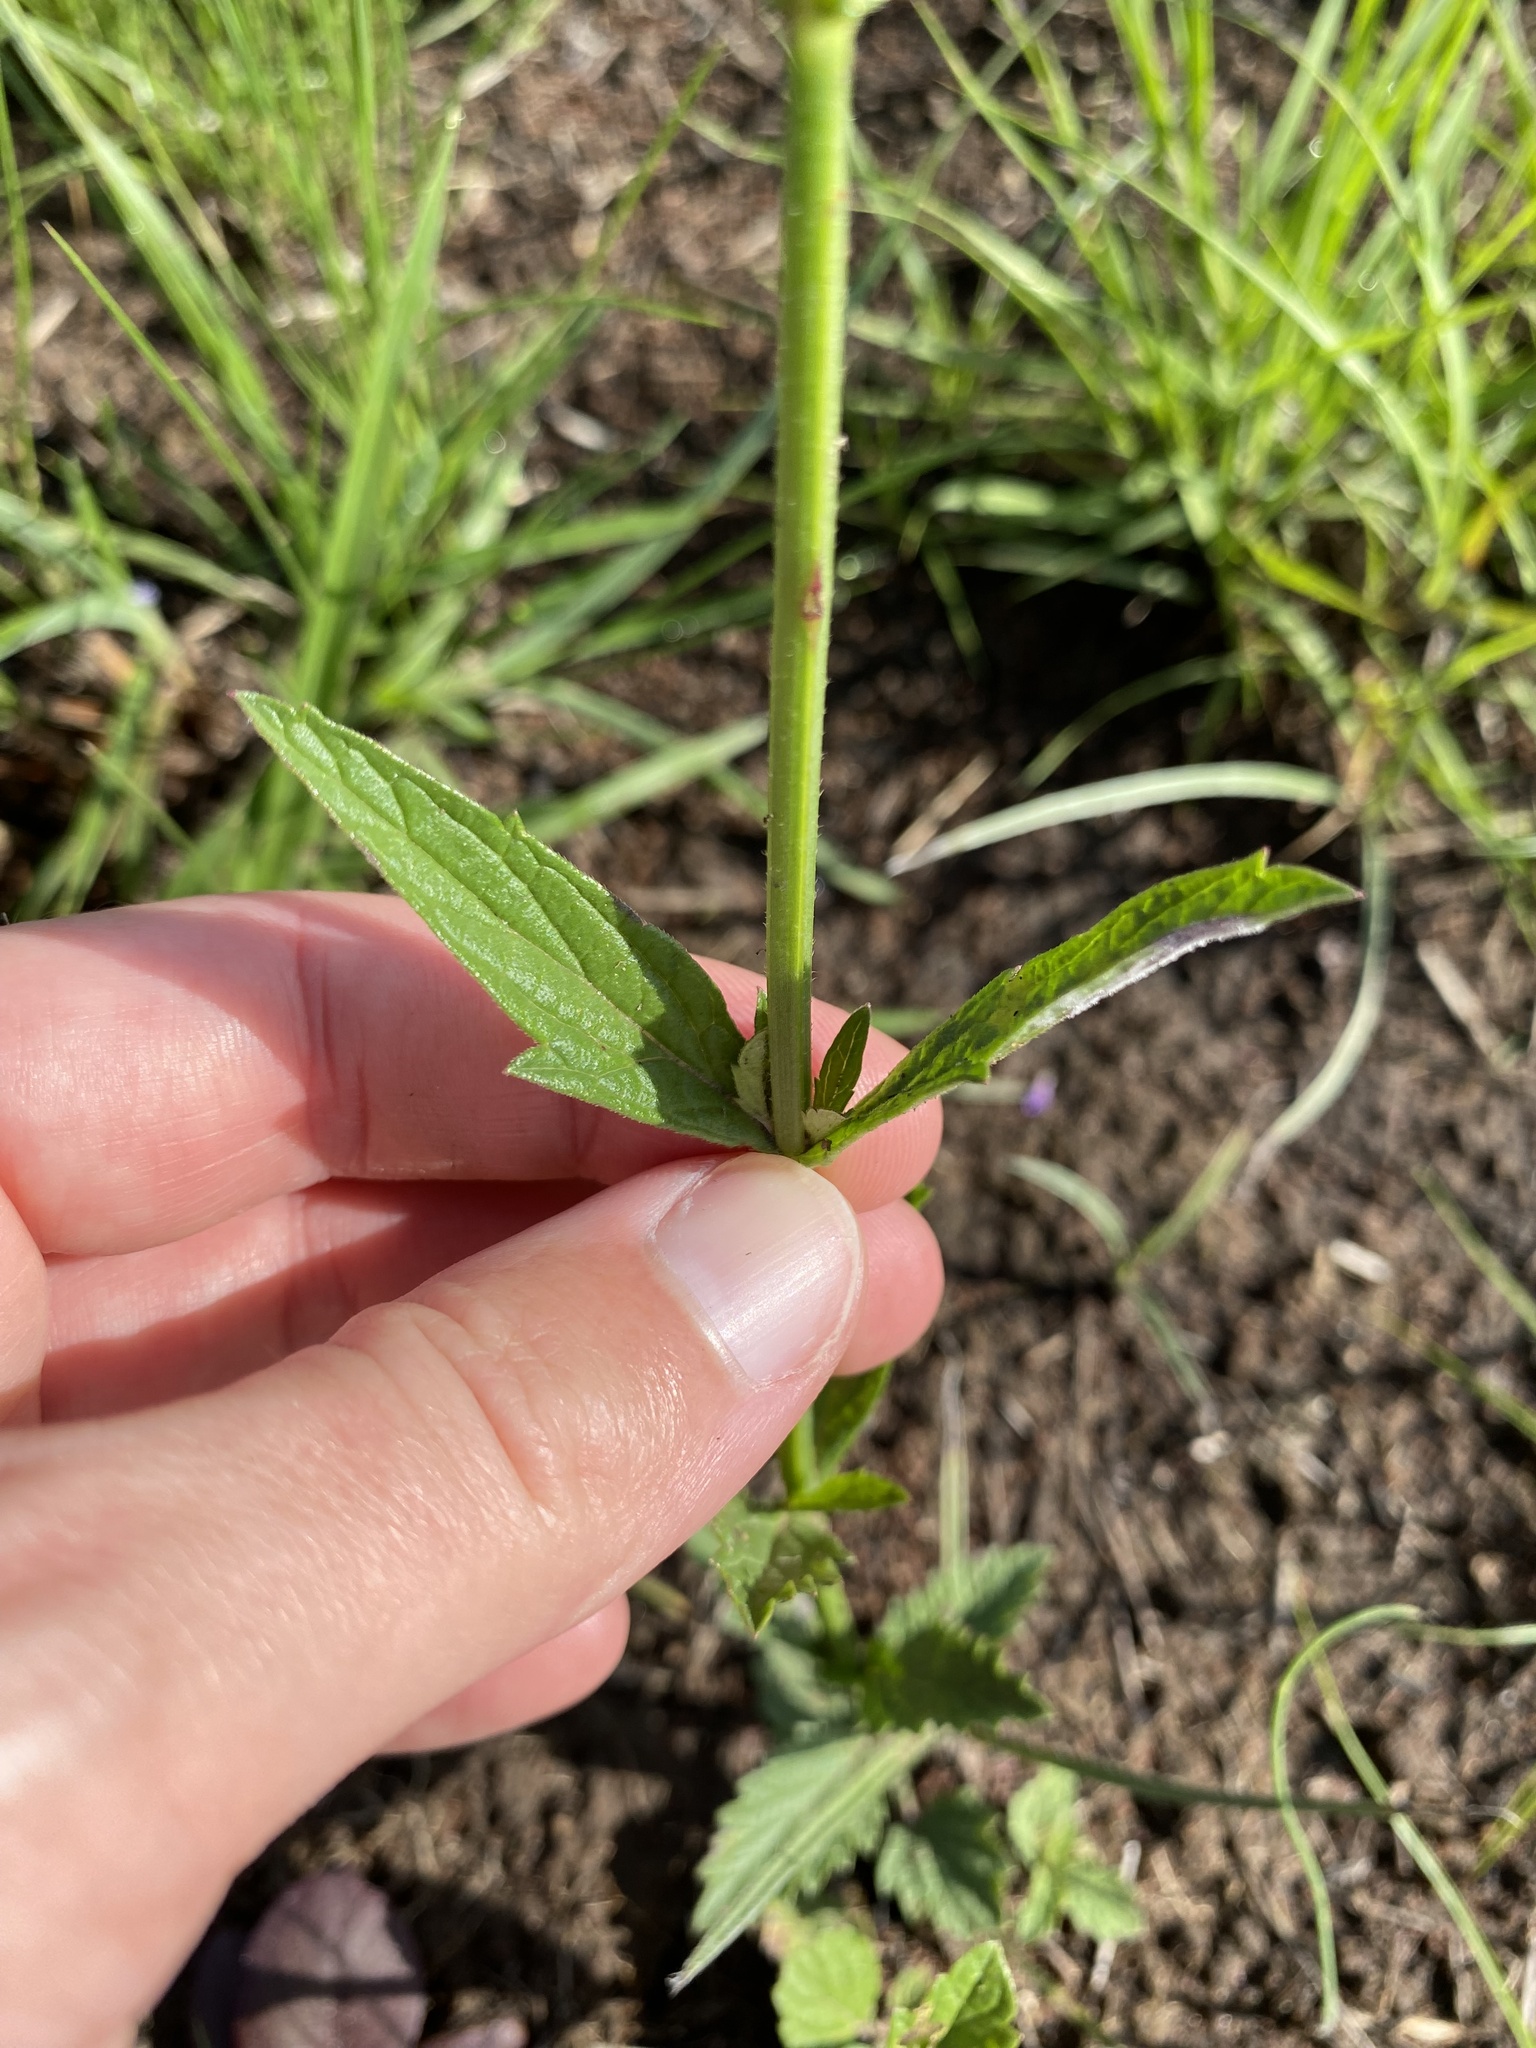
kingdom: Plantae
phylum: Tracheophyta
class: Magnoliopsida
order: Lamiales
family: Verbenaceae
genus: Verbena
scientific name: Verbena brasiliensis
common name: Brazilian vervain
